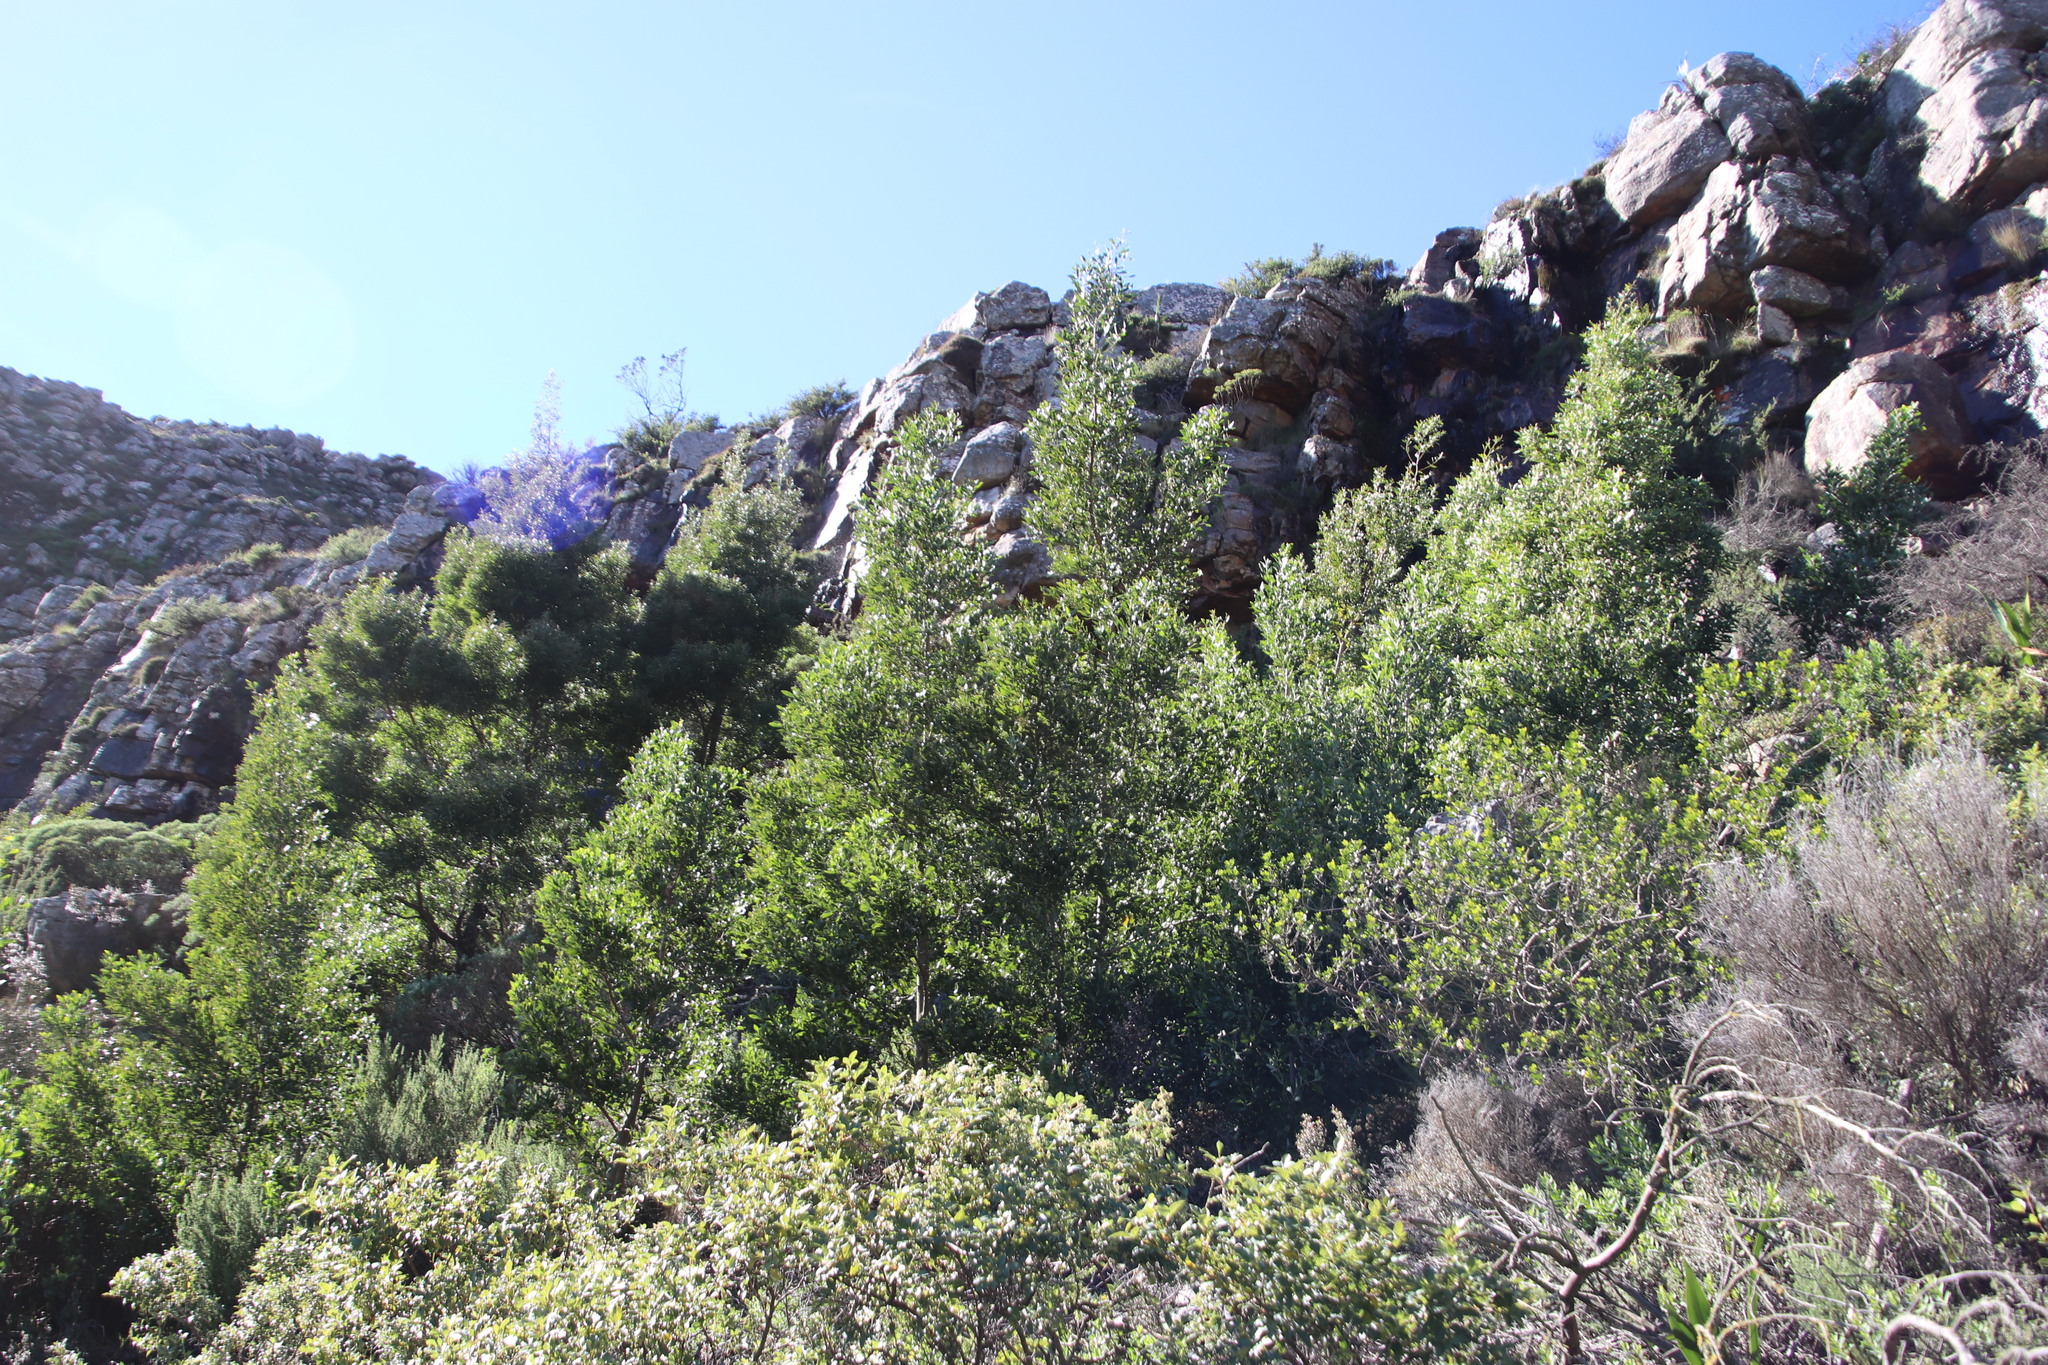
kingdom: Plantae
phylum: Tracheophyta
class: Magnoliopsida
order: Fabales
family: Fabaceae
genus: Acacia
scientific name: Acacia melanoxylon
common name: Blackwood
